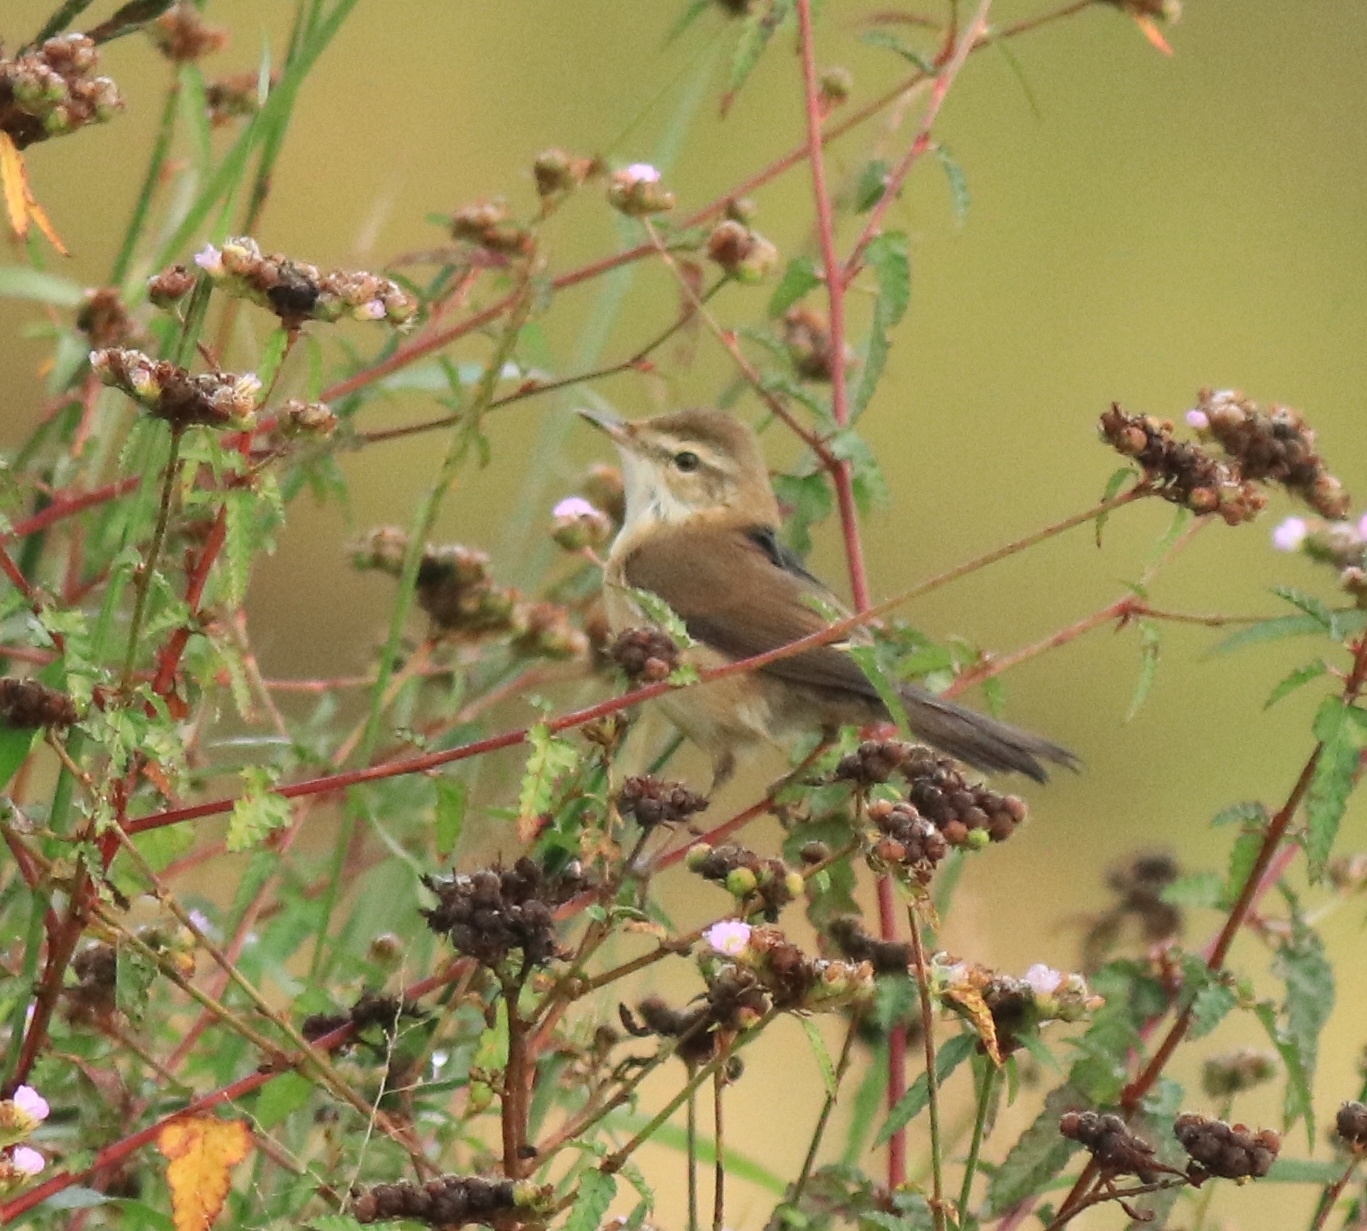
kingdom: Animalia
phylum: Chordata
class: Aves
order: Passeriformes
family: Acrocephalidae
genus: Acrocephalus
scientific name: Acrocephalus agricola
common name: Paddyfield warbler
